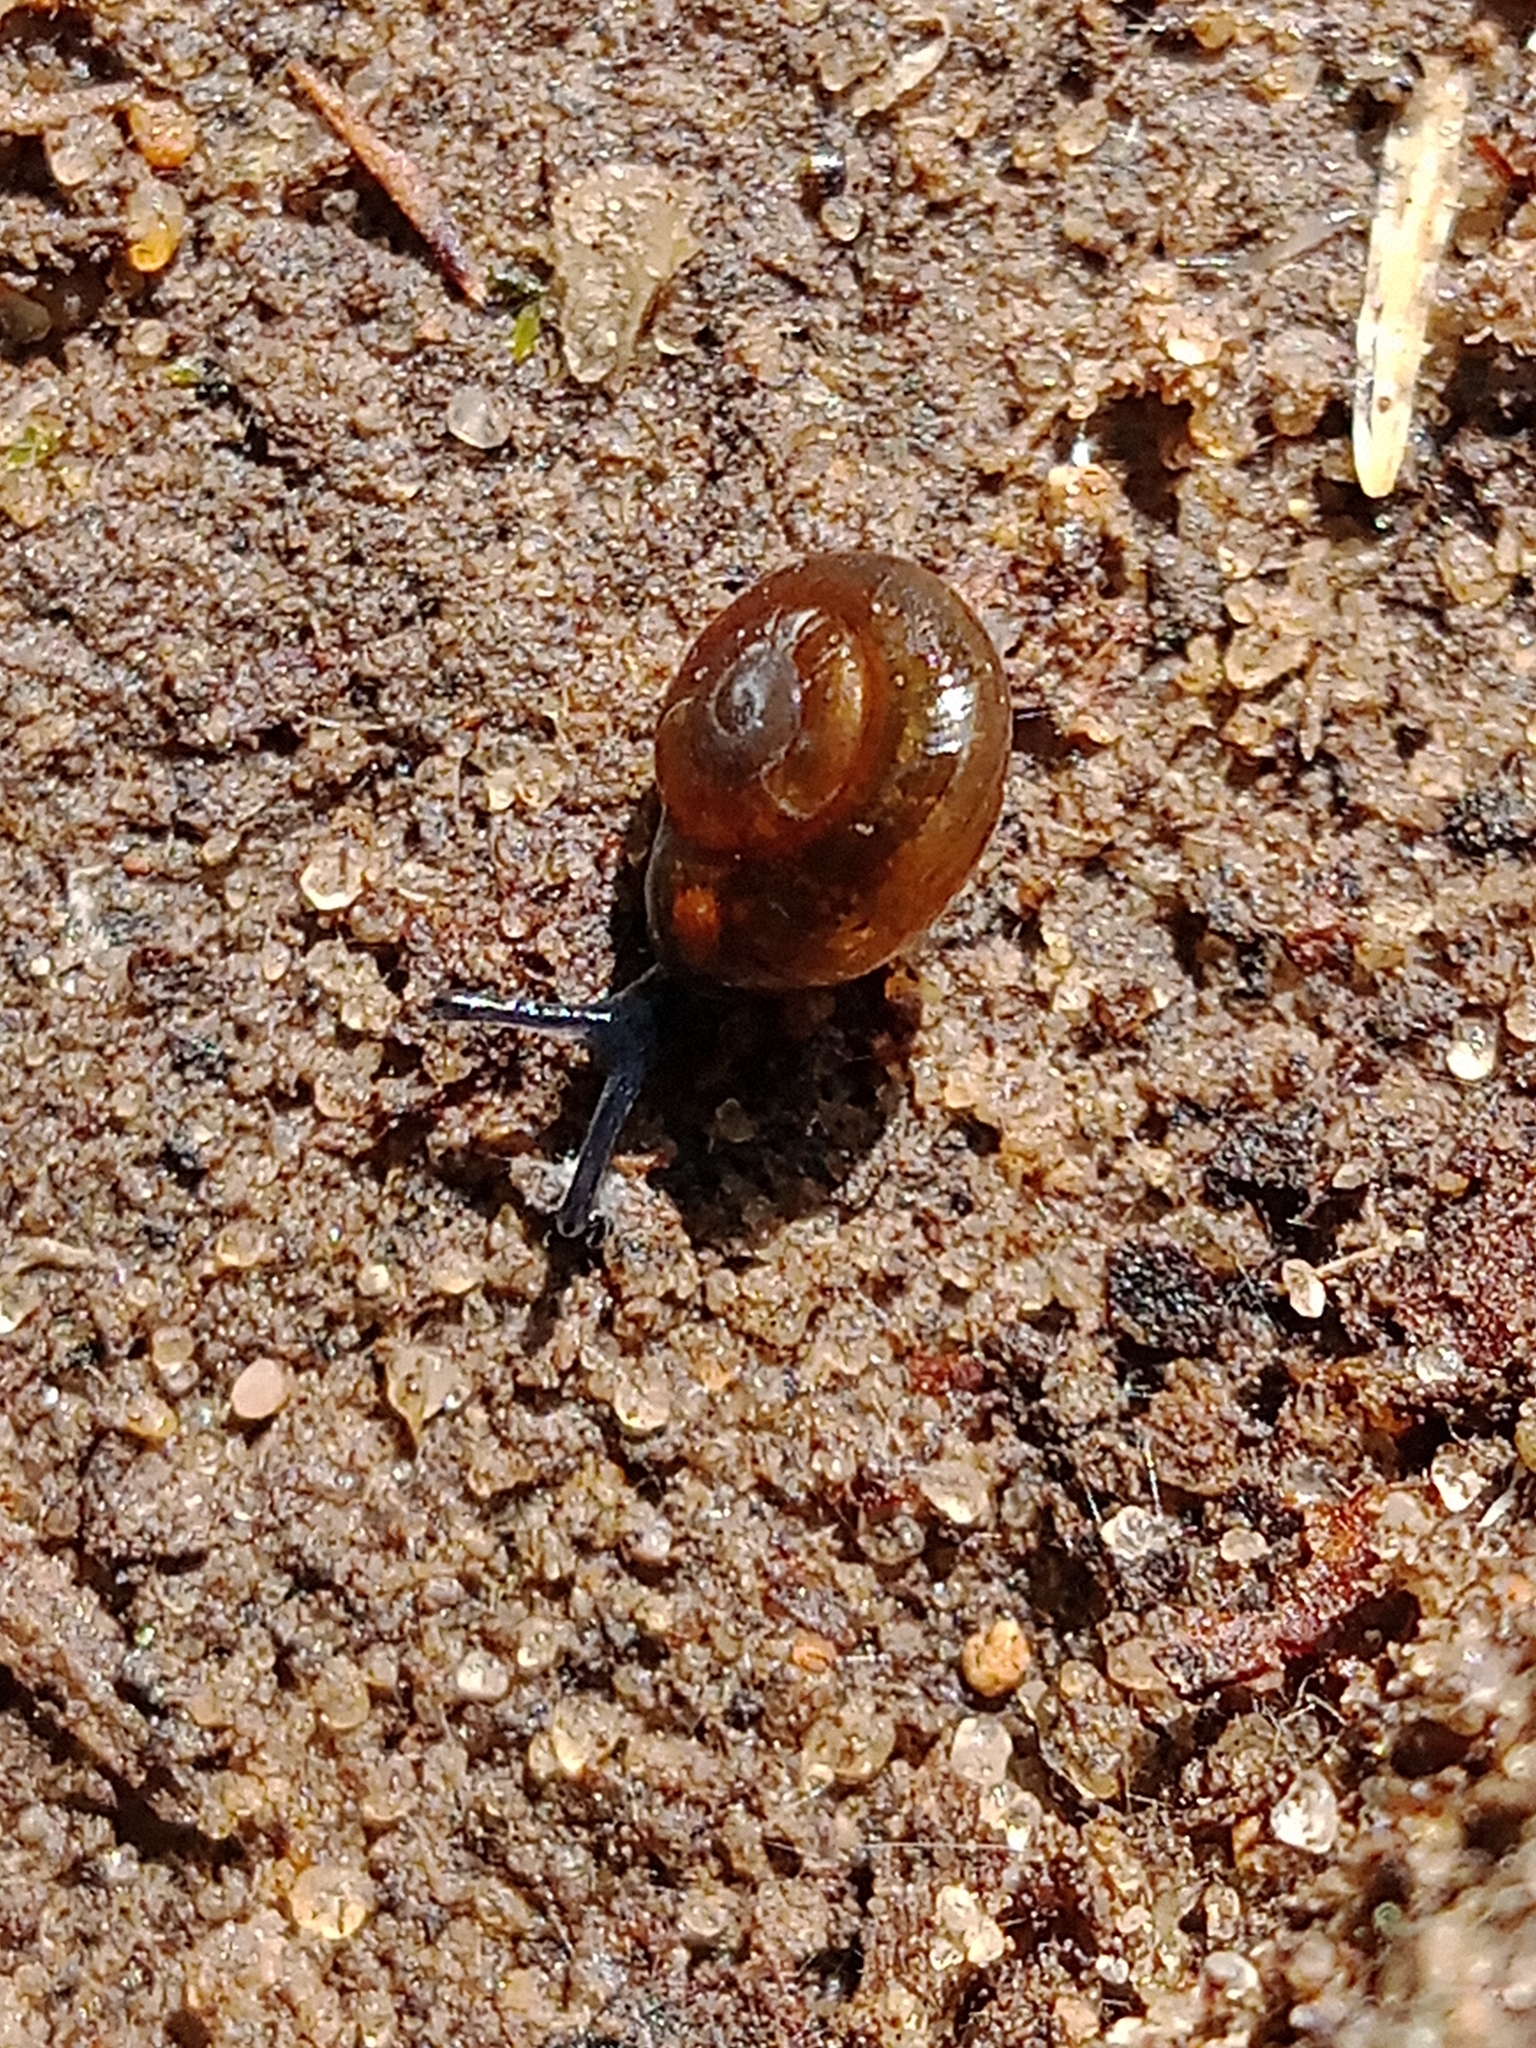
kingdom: Animalia
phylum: Mollusca
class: Gastropoda
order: Stylommatophora
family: Gastrodontidae
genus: Zonitoides
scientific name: Zonitoides nitidus
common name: Shiny glass snail
